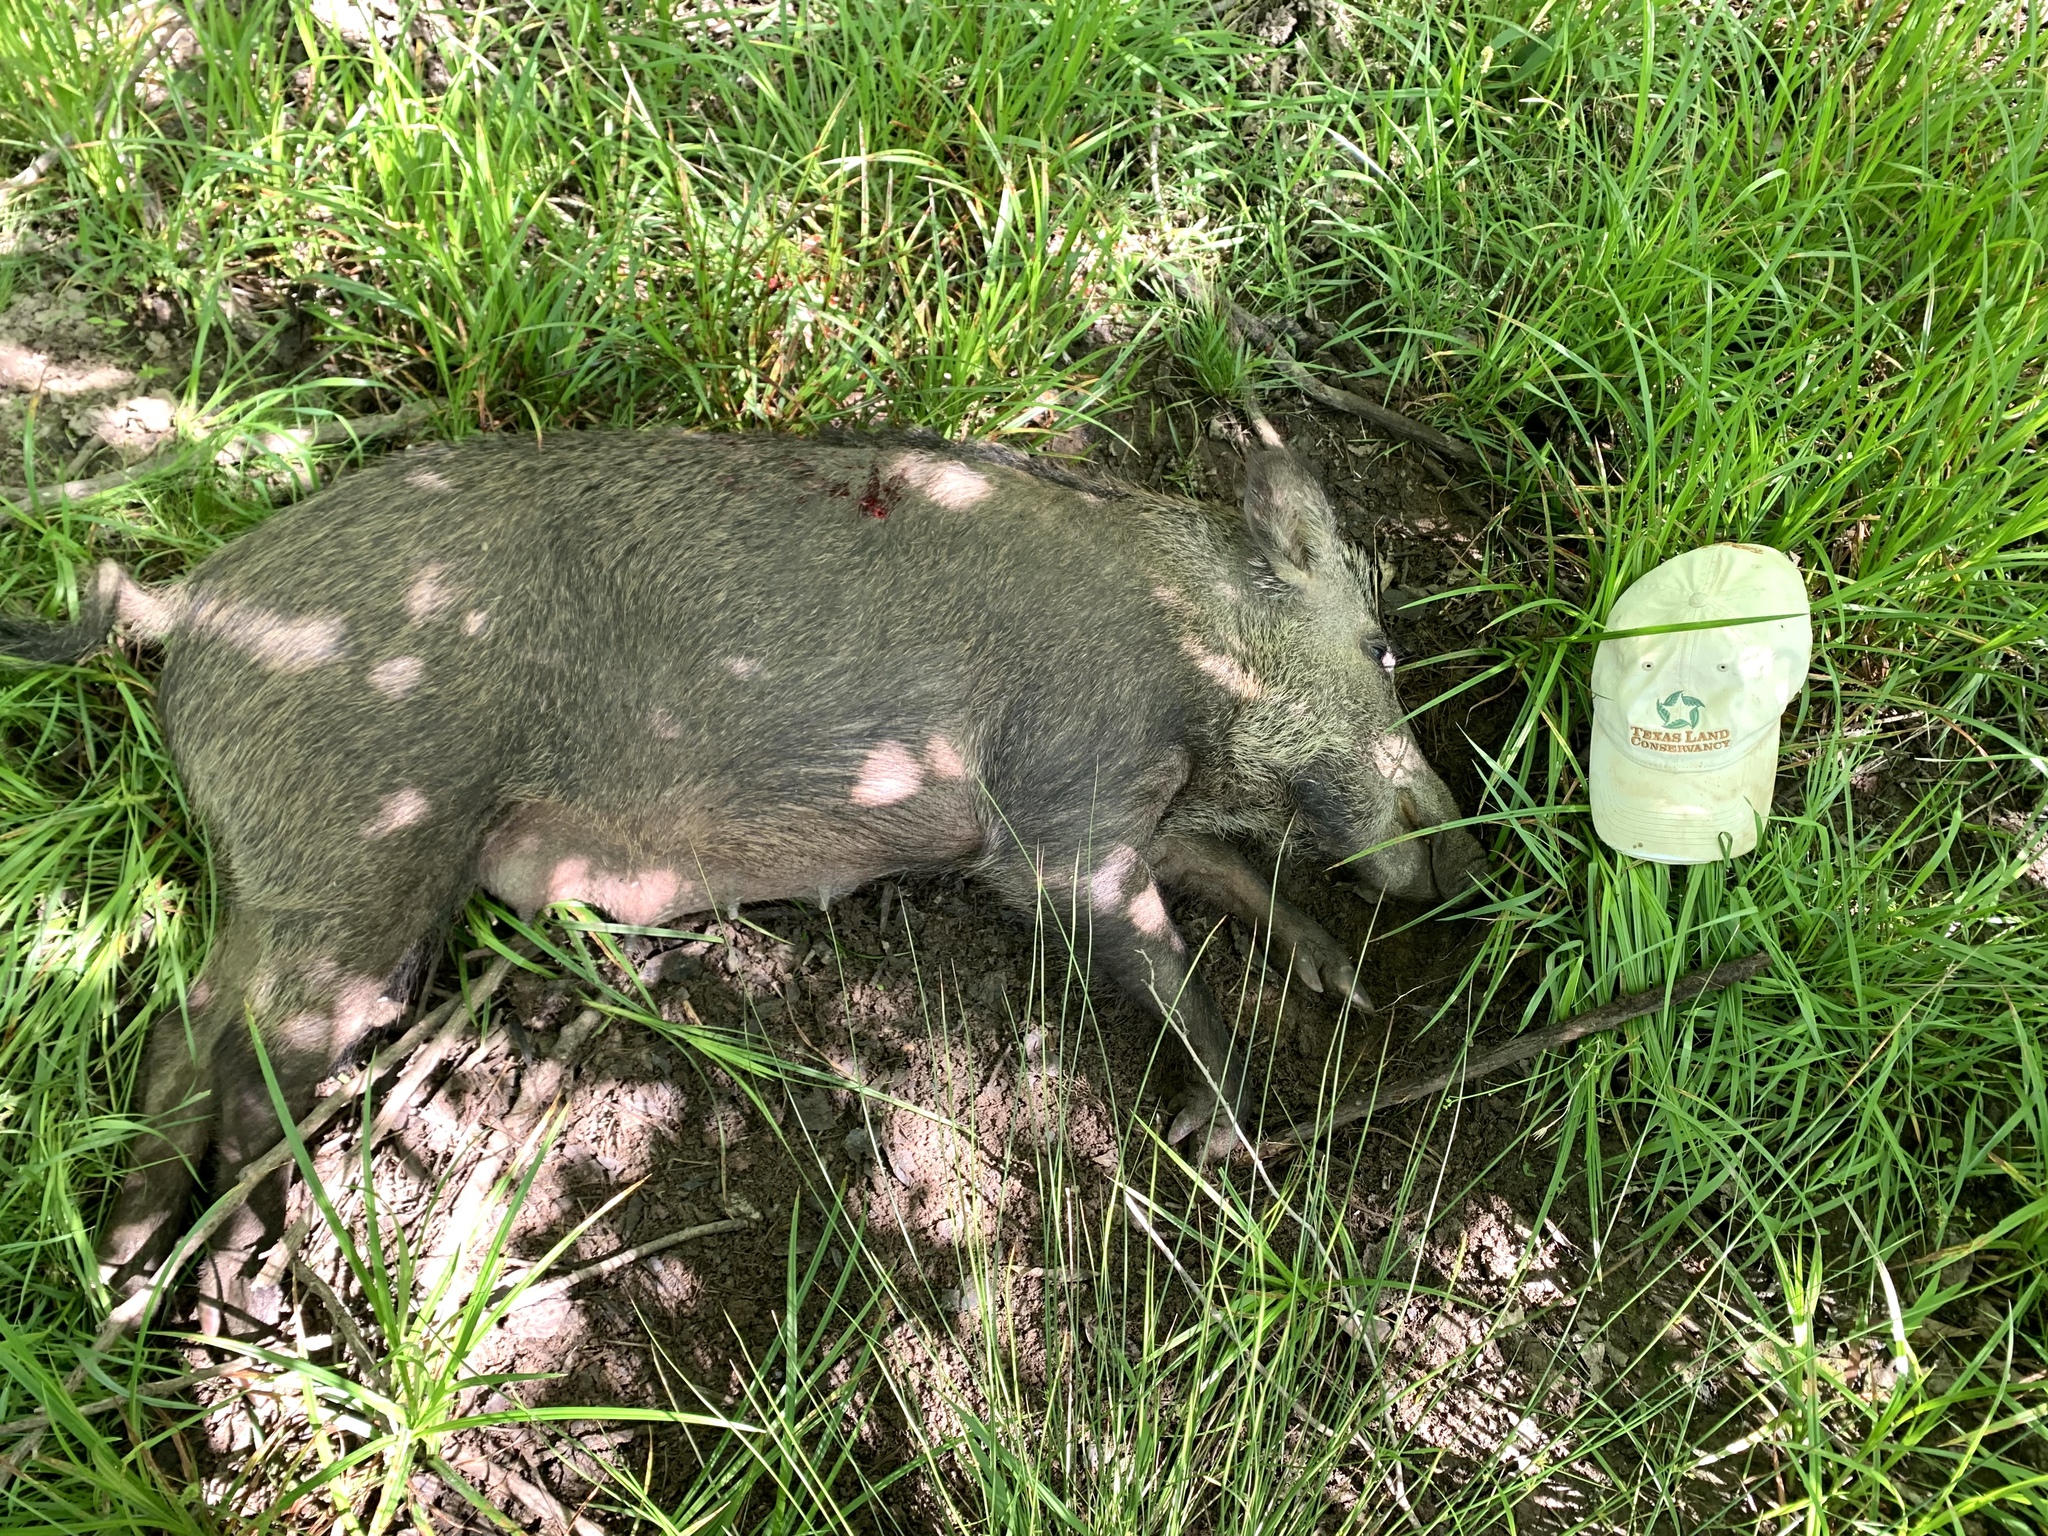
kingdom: Animalia
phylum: Chordata
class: Mammalia
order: Artiodactyla
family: Suidae
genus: Sus
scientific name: Sus scrofa
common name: Wild boar
